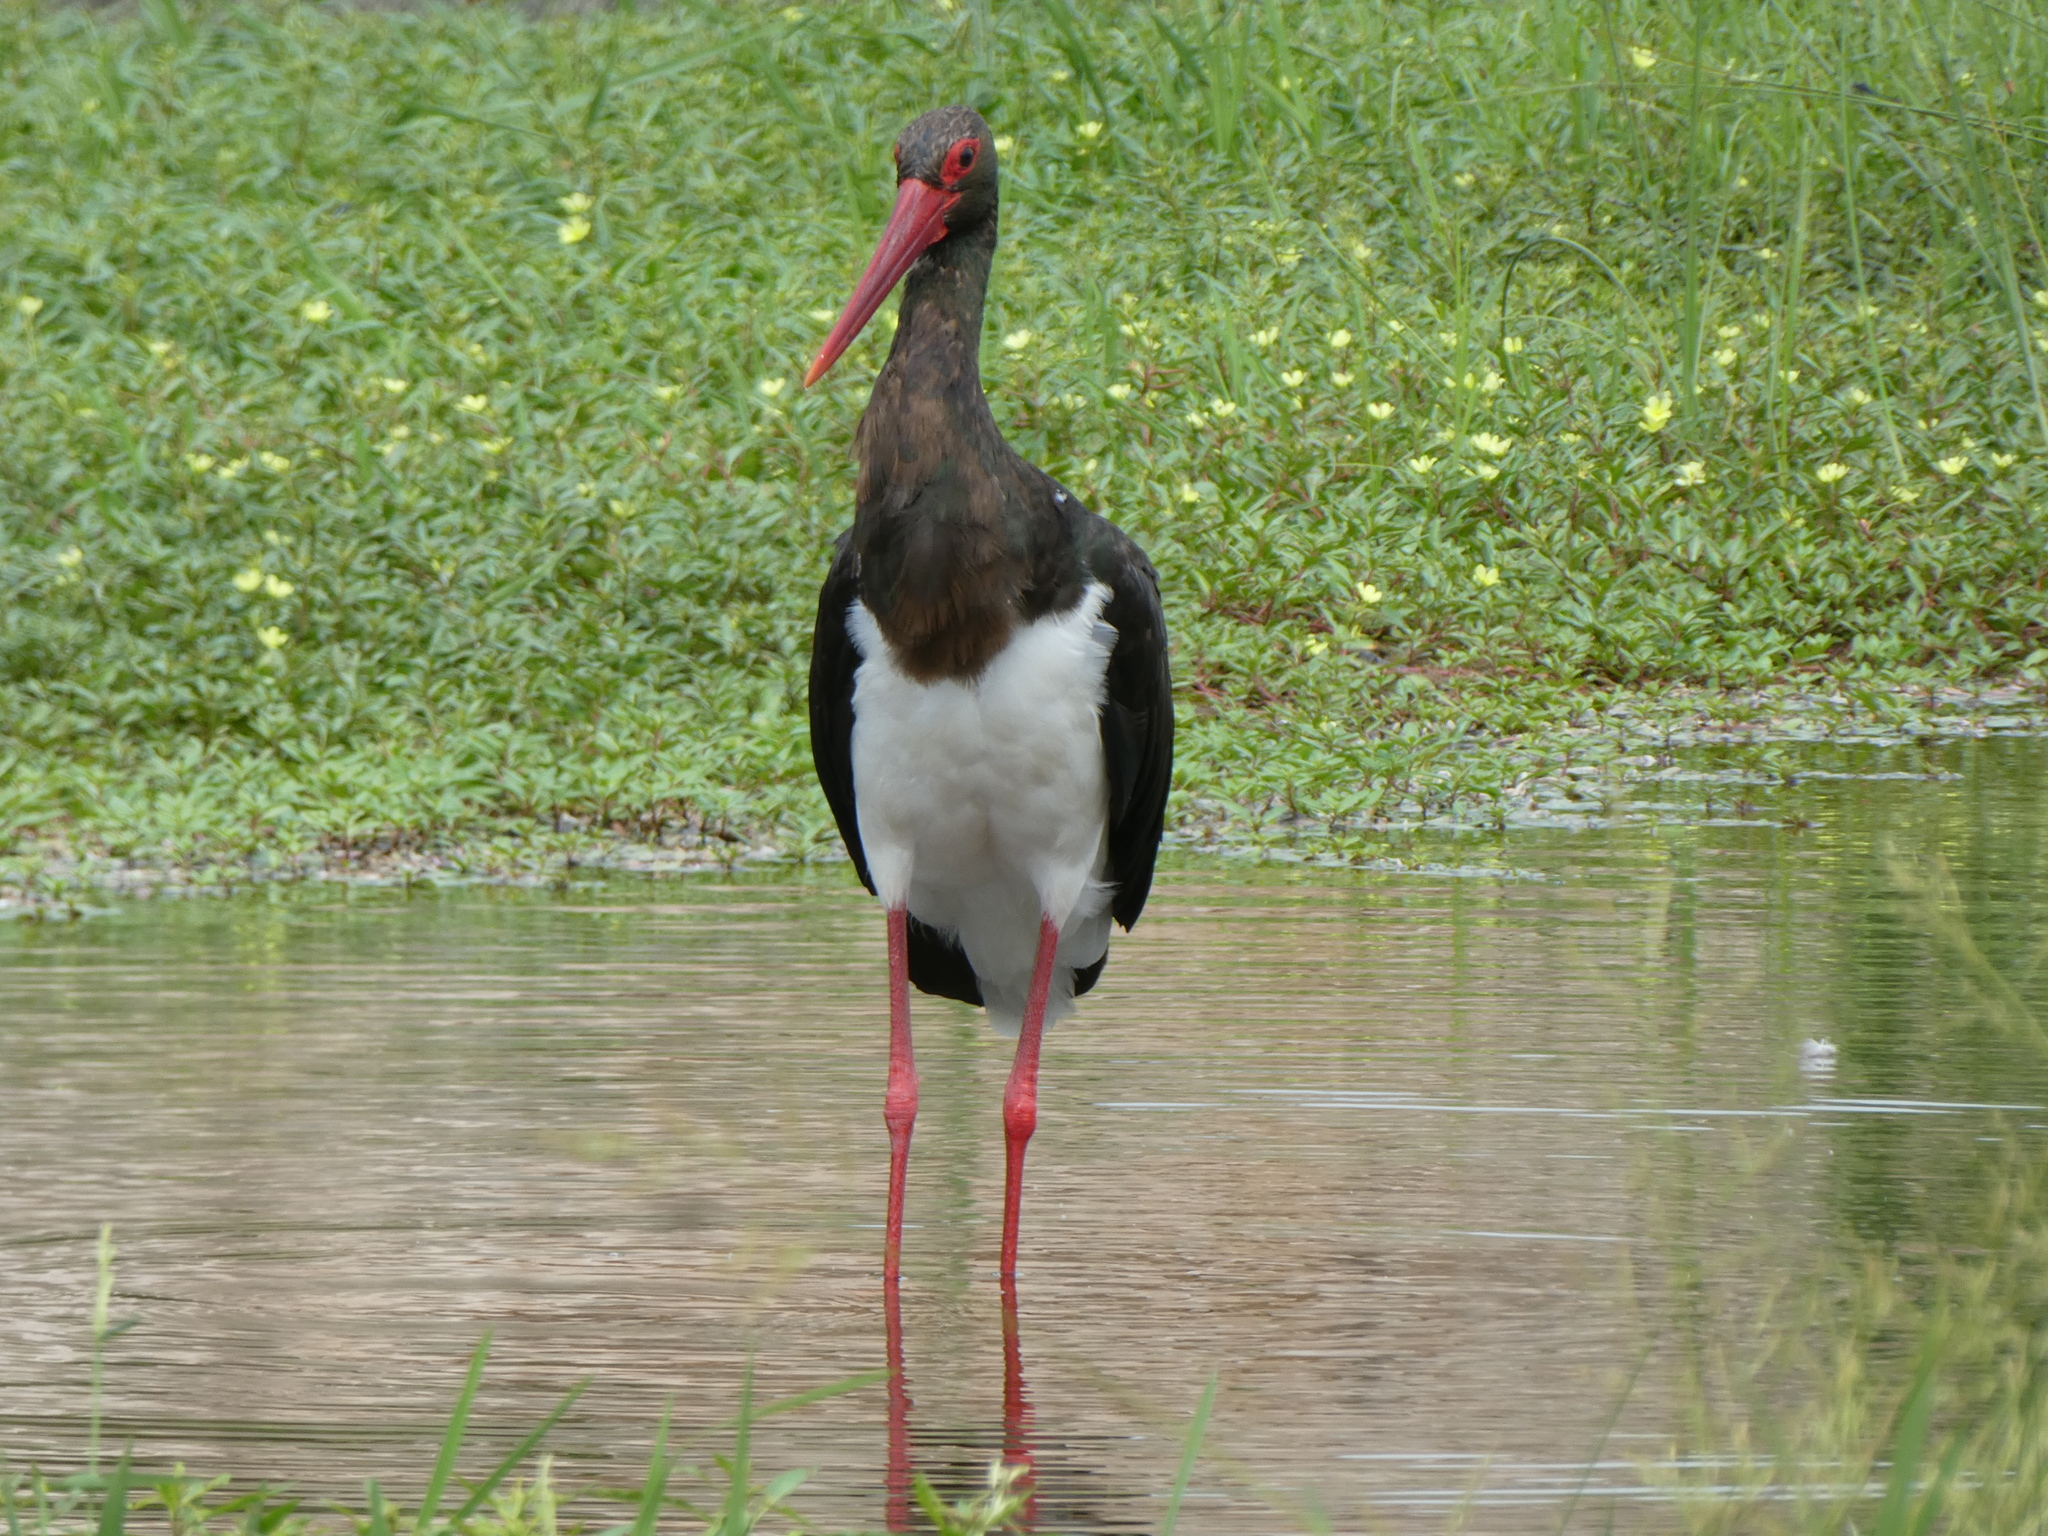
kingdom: Animalia
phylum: Chordata
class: Aves
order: Ciconiiformes
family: Ciconiidae
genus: Ciconia
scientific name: Ciconia nigra
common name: Black stork
